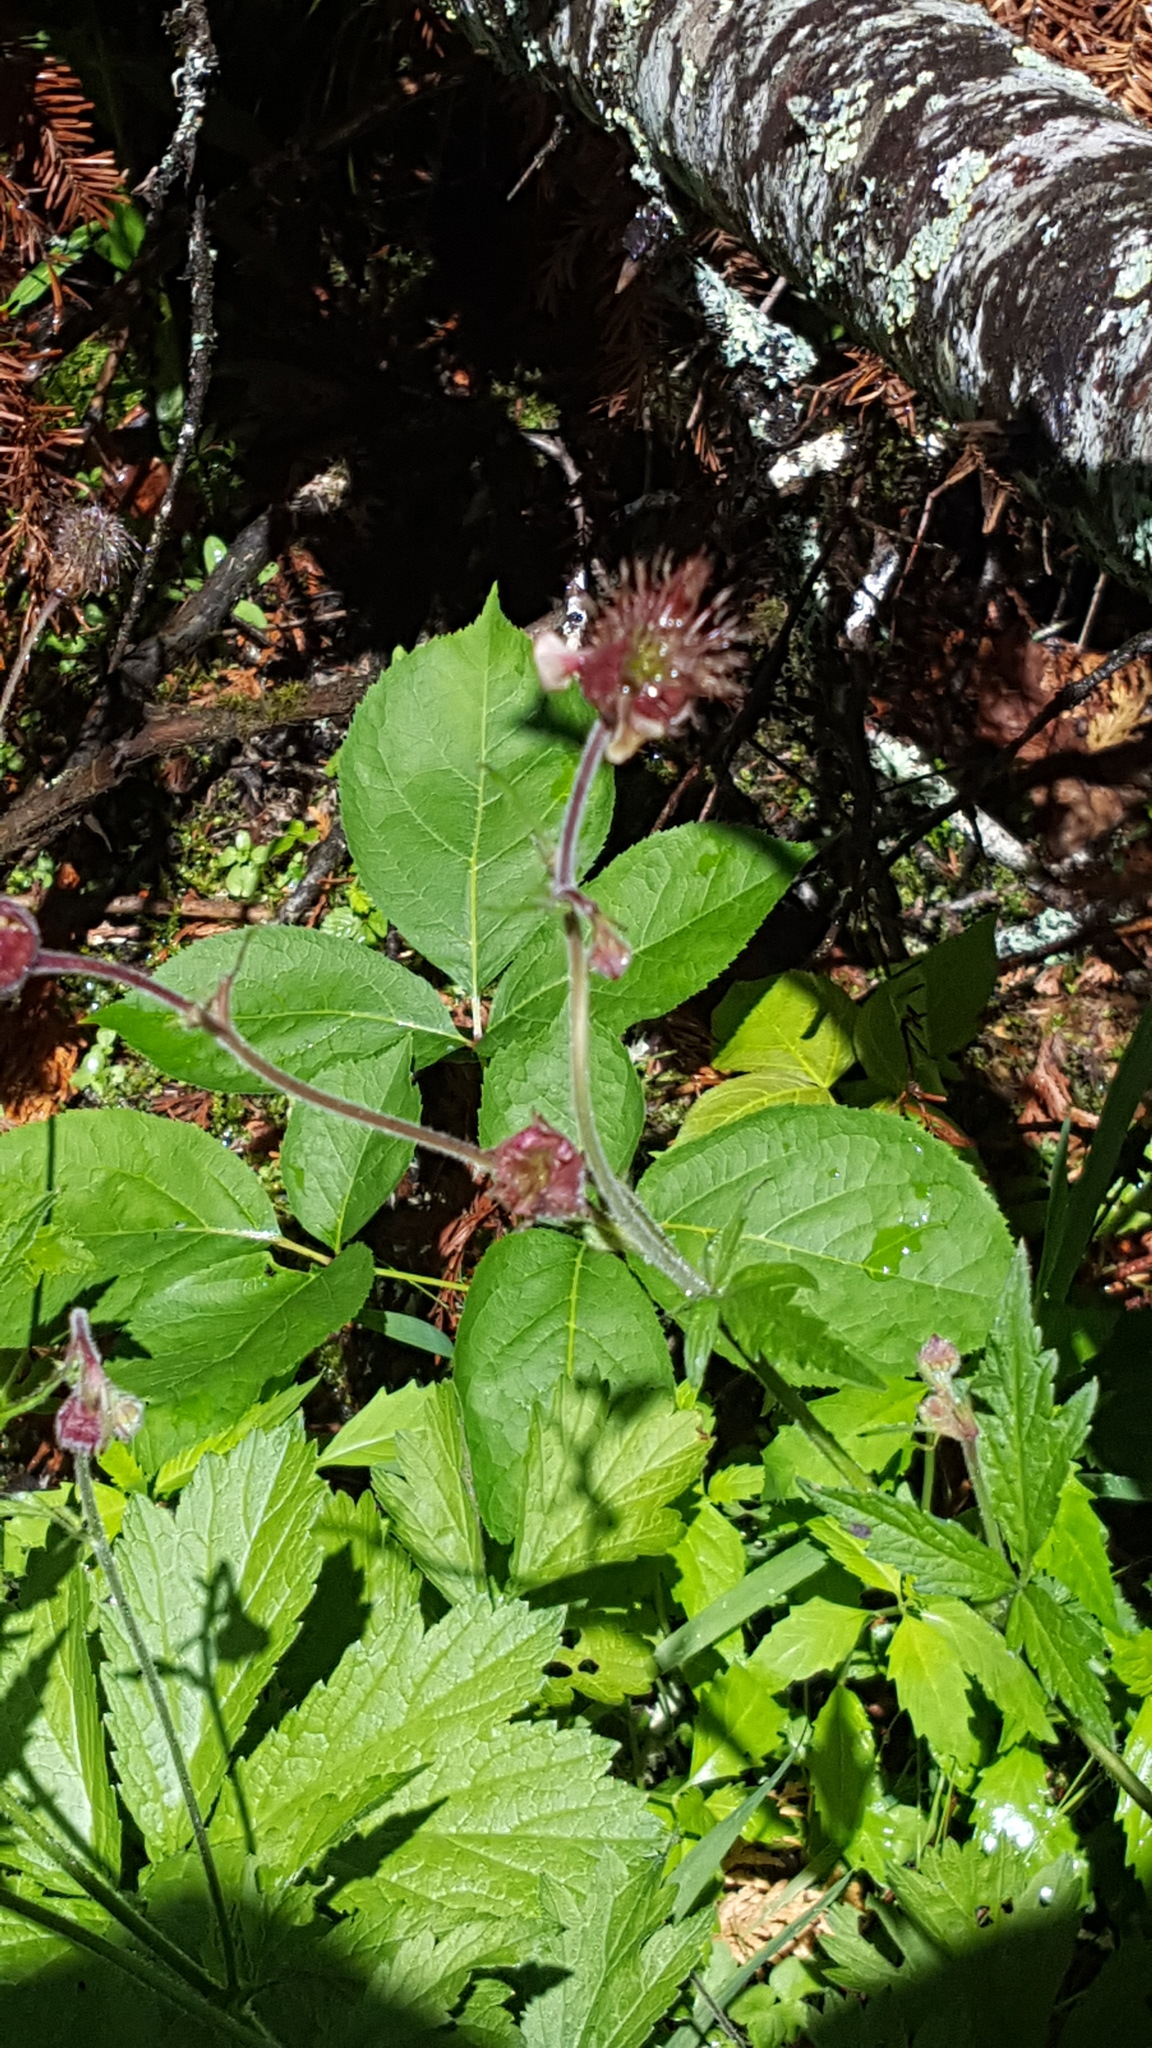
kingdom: Plantae
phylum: Tracheophyta
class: Magnoliopsida
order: Rosales
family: Rosaceae
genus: Geum
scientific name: Geum rivale
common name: Water avens
